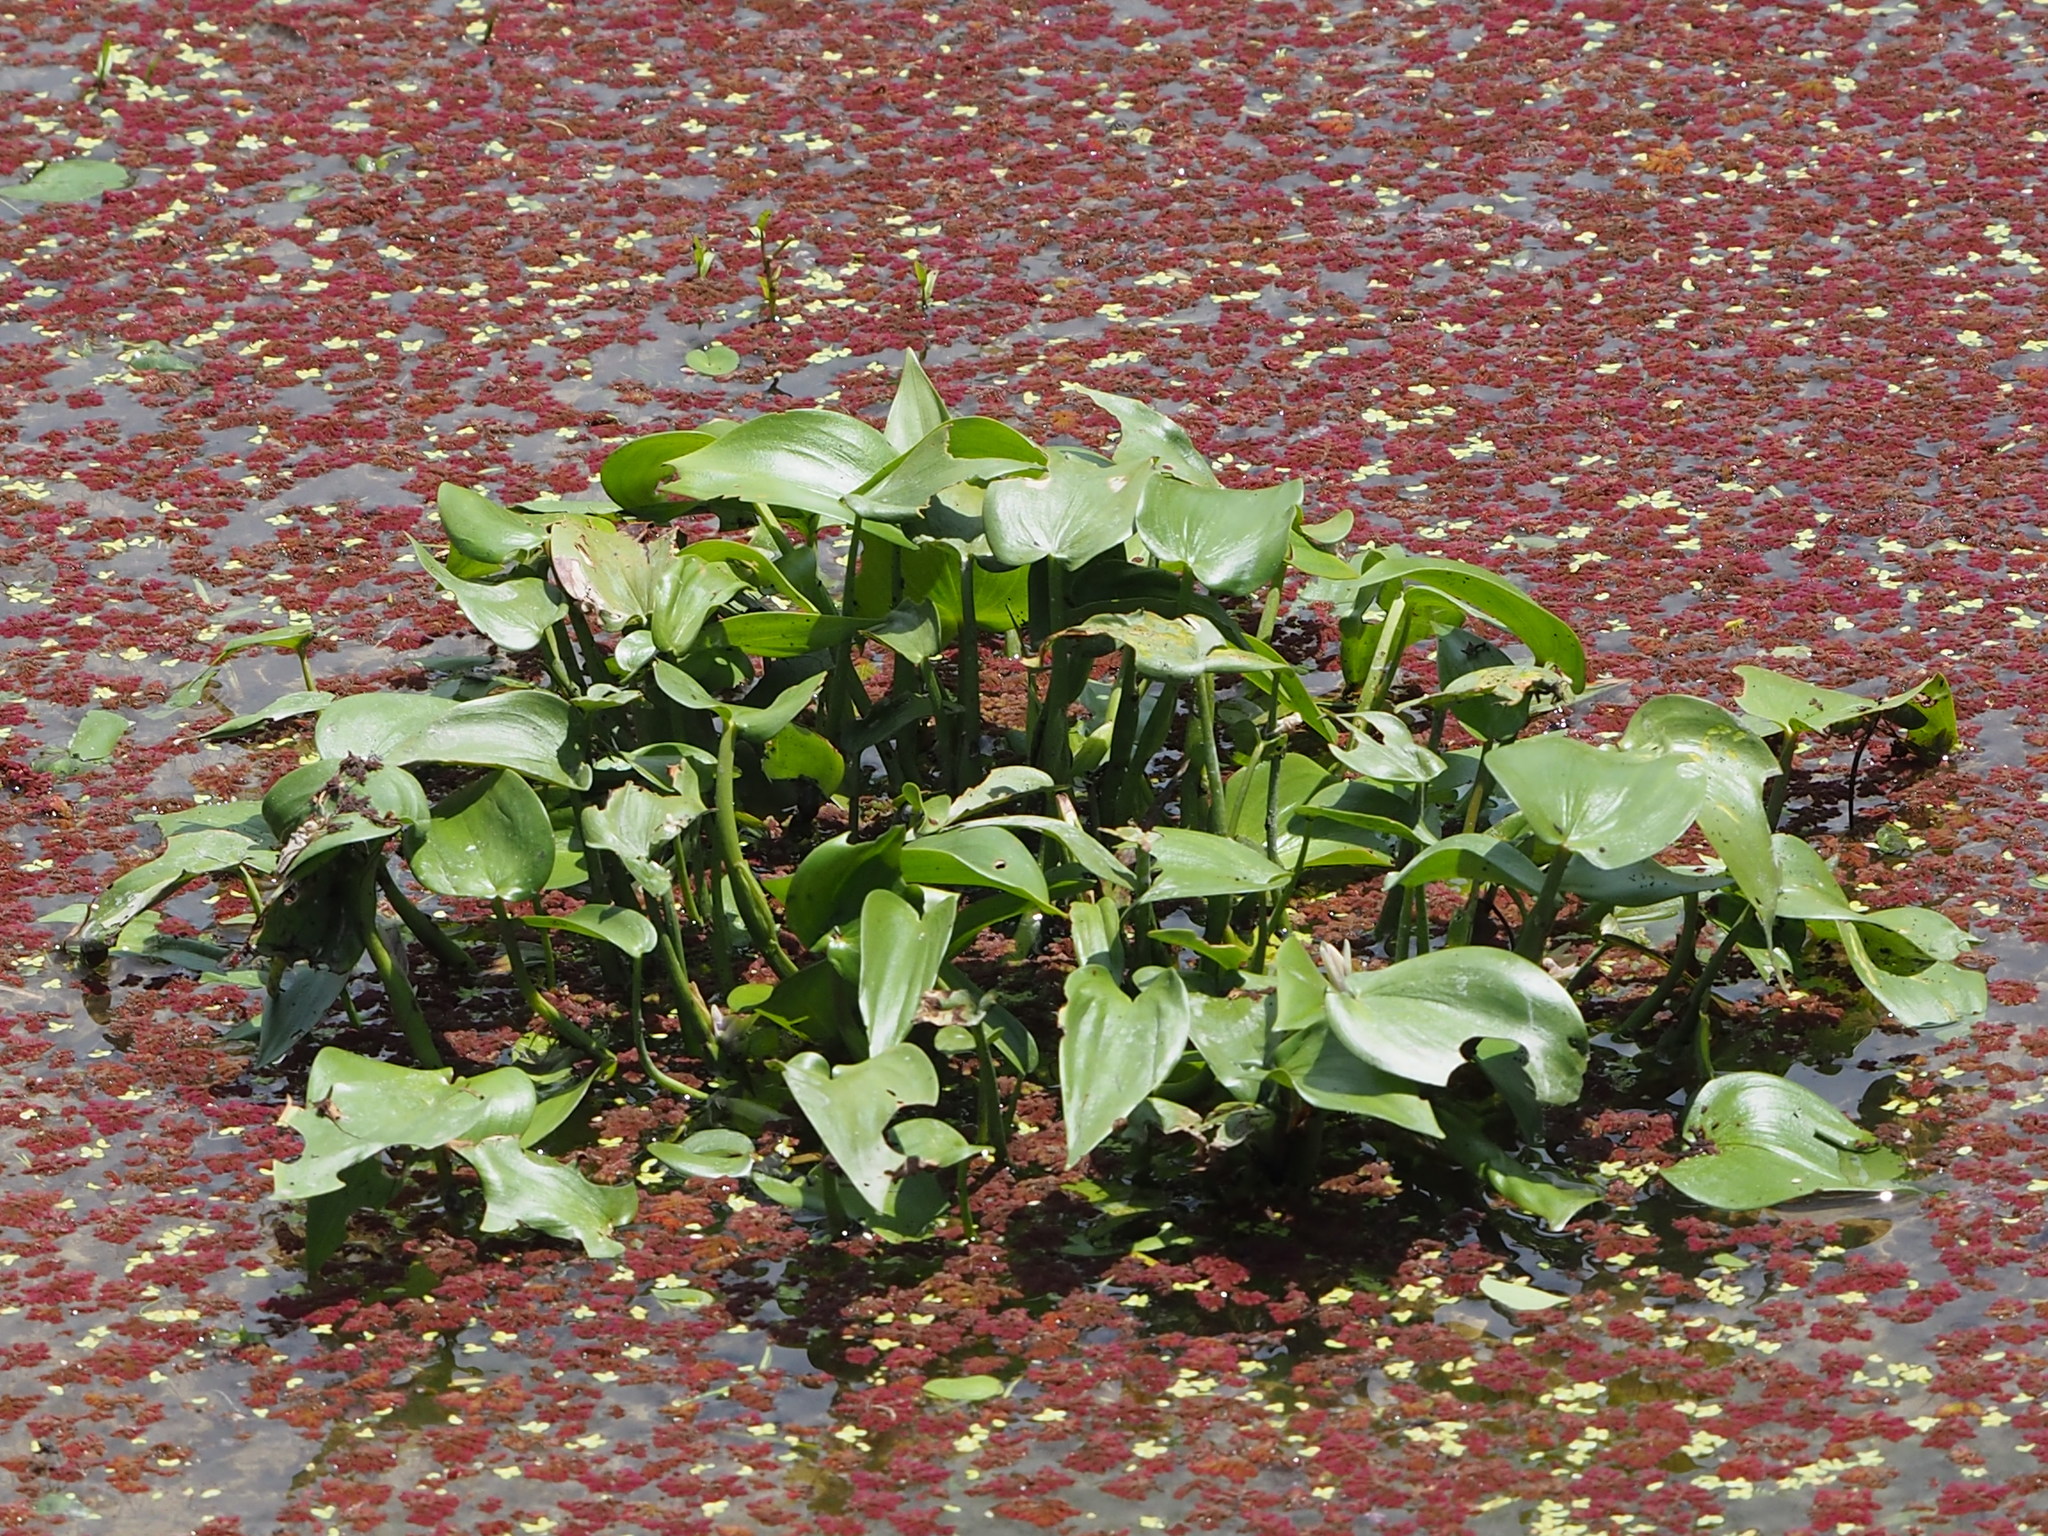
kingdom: Plantae
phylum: Tracheophyta
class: Liliopsida
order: Commelinales
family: Pontederiaceae
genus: Pontederia
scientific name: Pontederia vaginalis
